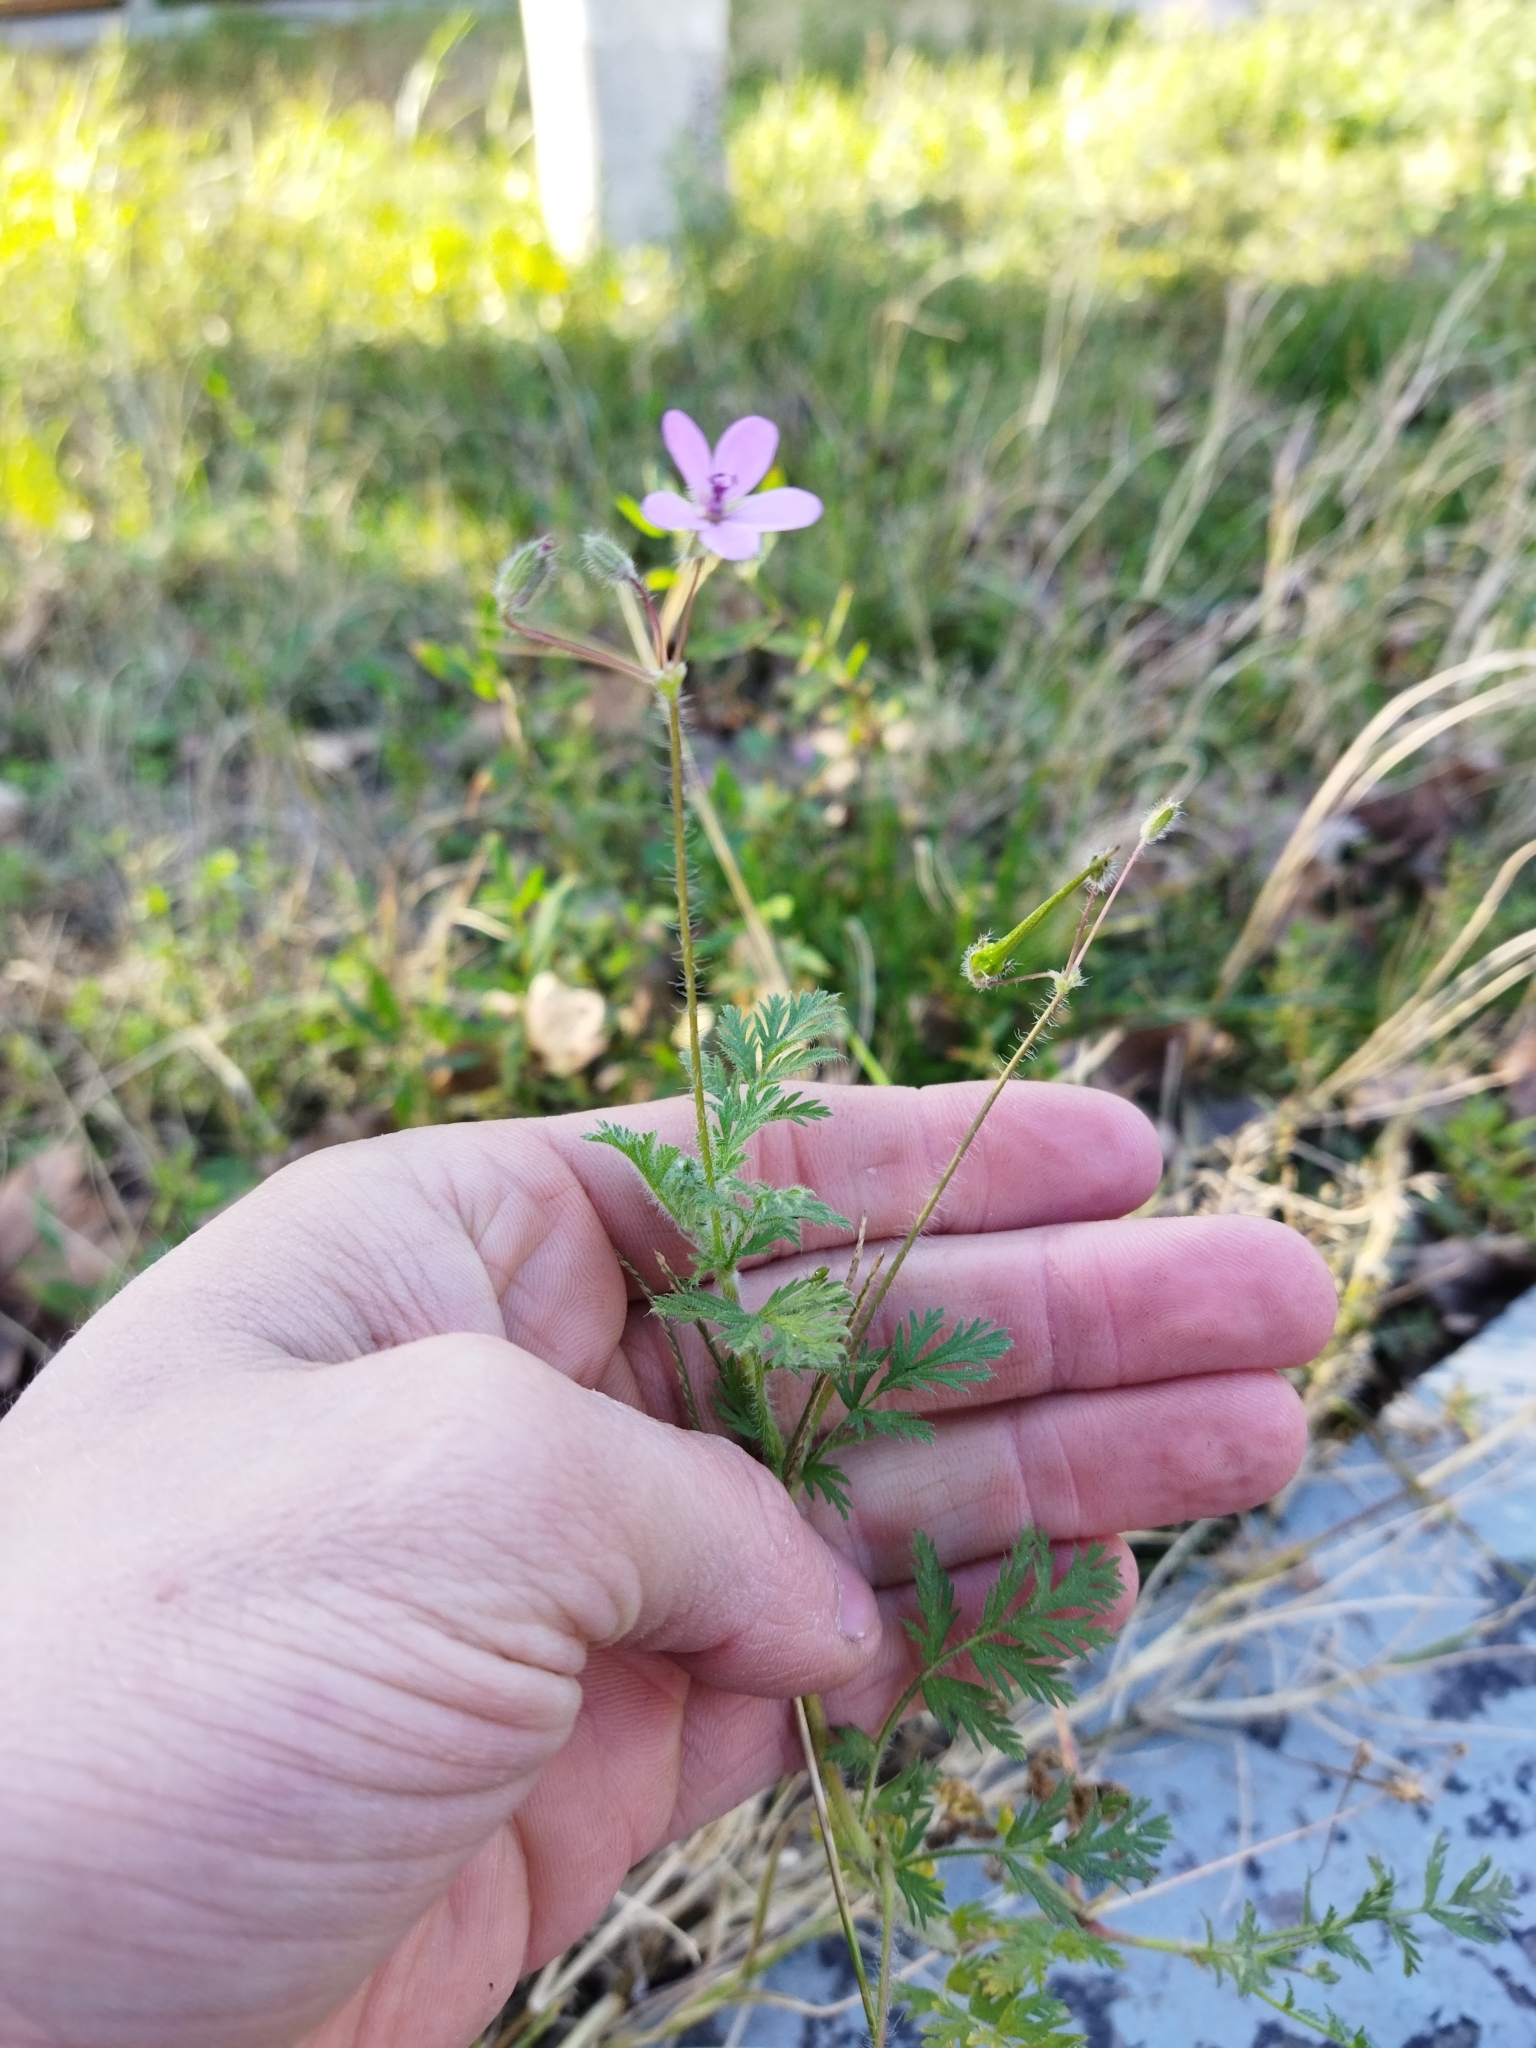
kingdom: Plantae
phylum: Tracheophyta
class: Magnoliopsida
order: Geraniales
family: Geraniaceae
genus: Erodium
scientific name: Erodium cicutarium
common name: Common stork's-bill
